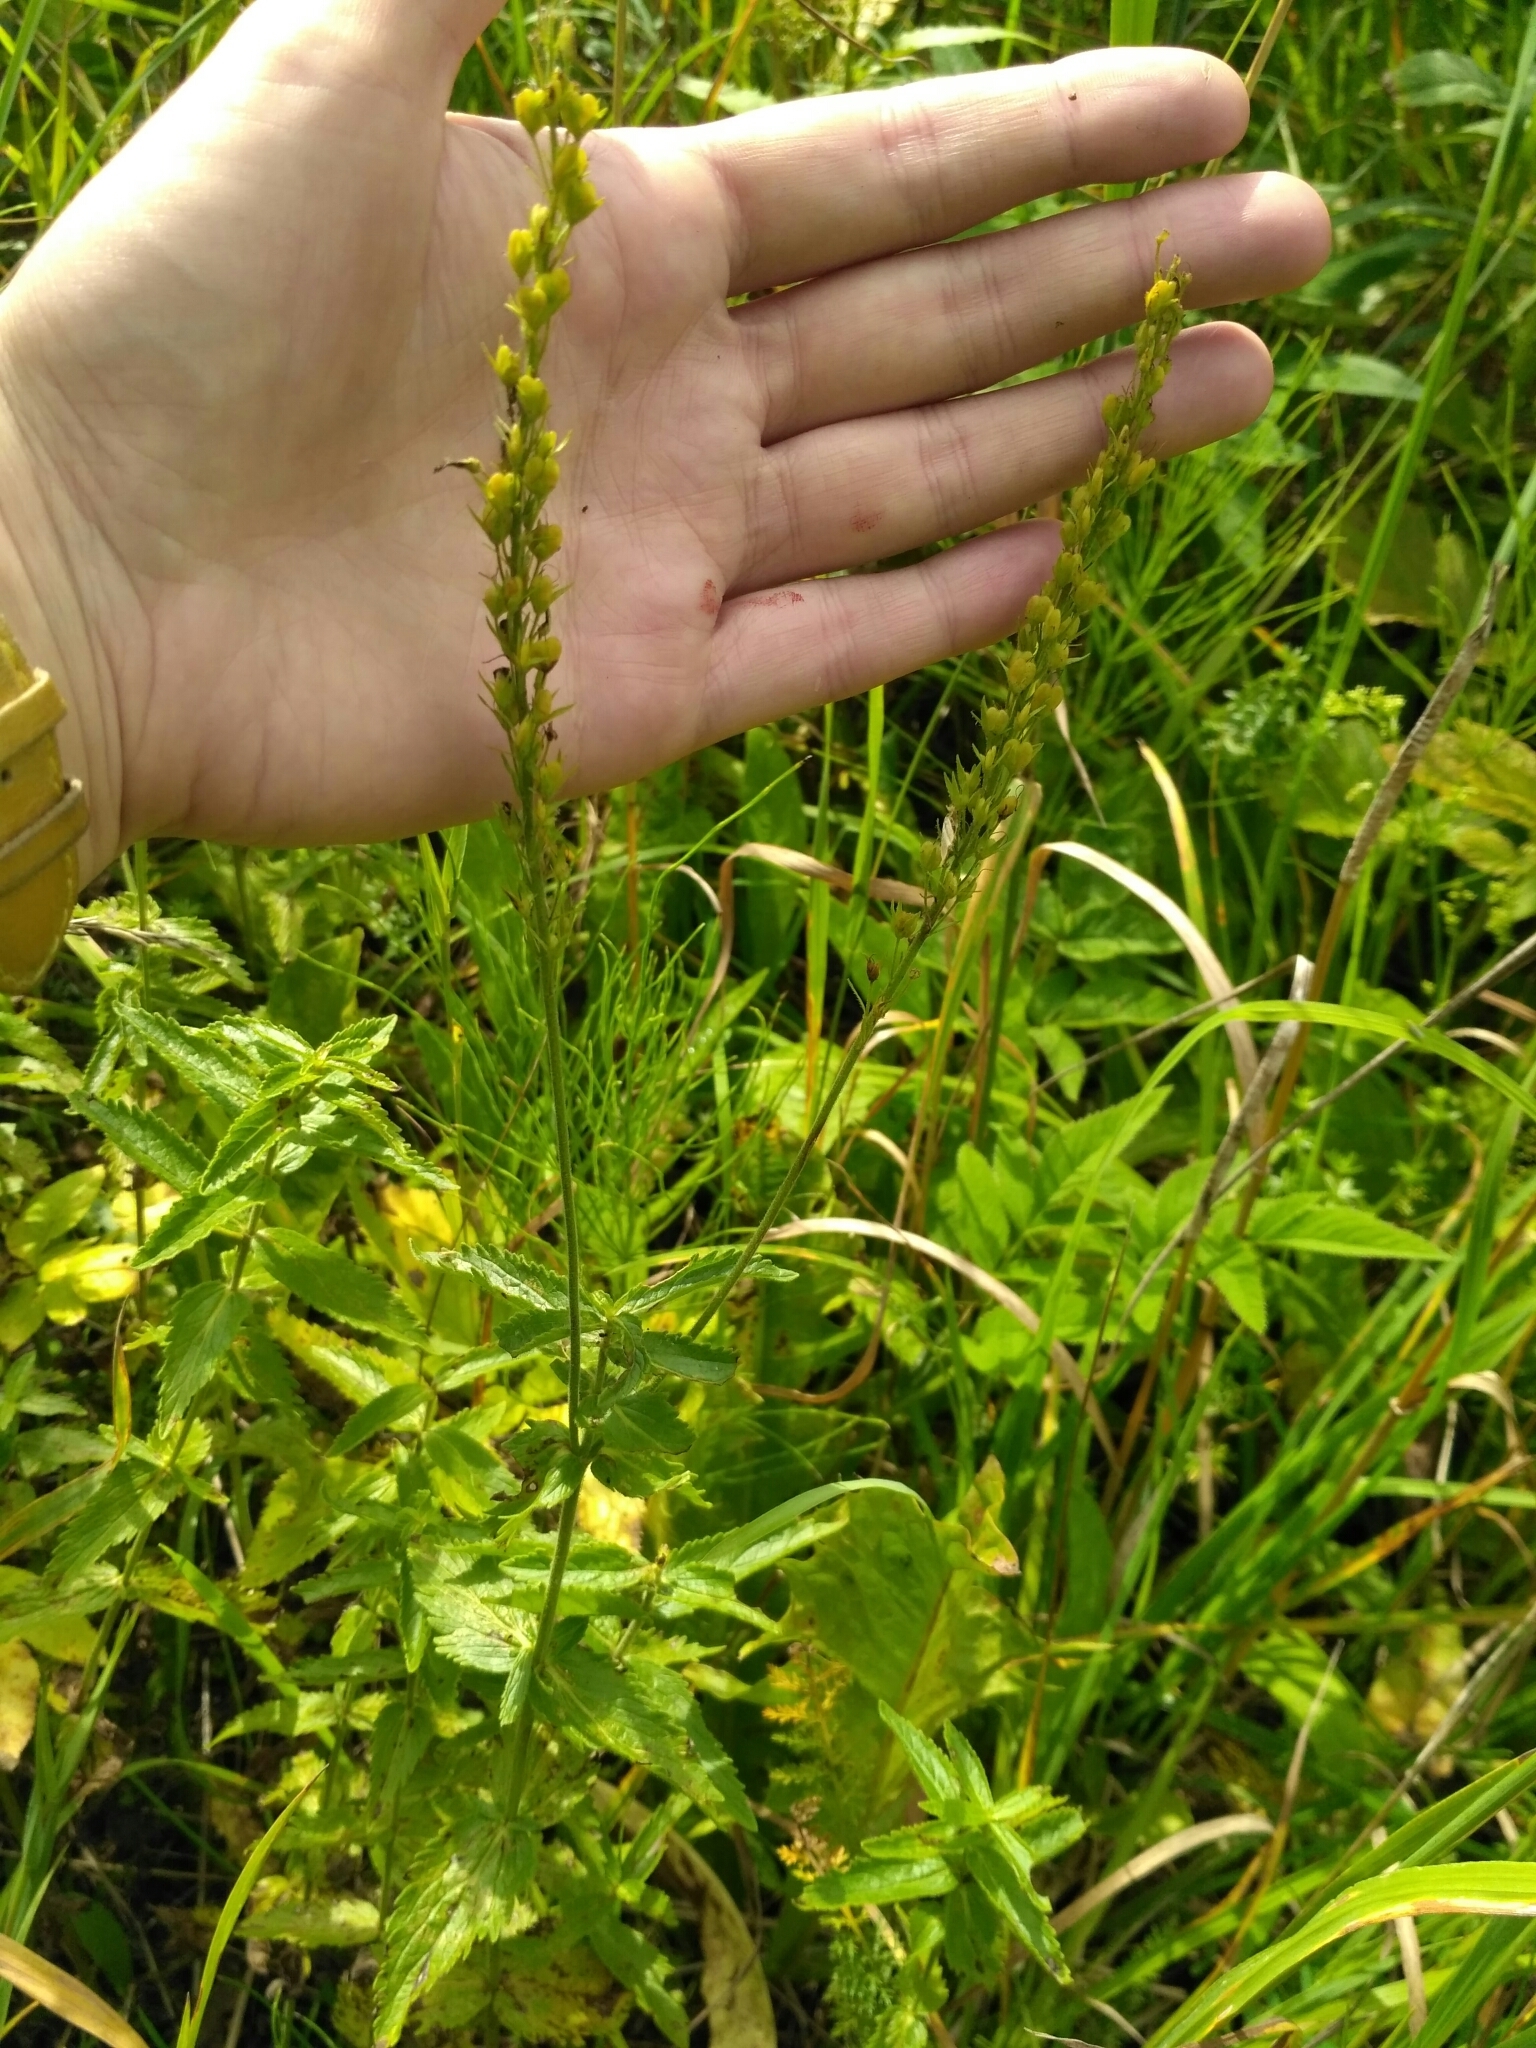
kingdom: Plantae
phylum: Tracheophyta
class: Magnoliopsida
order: Lamiales
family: Plantaginaceae
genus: Veronica
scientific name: Veronica teucrium
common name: Large speedwell
